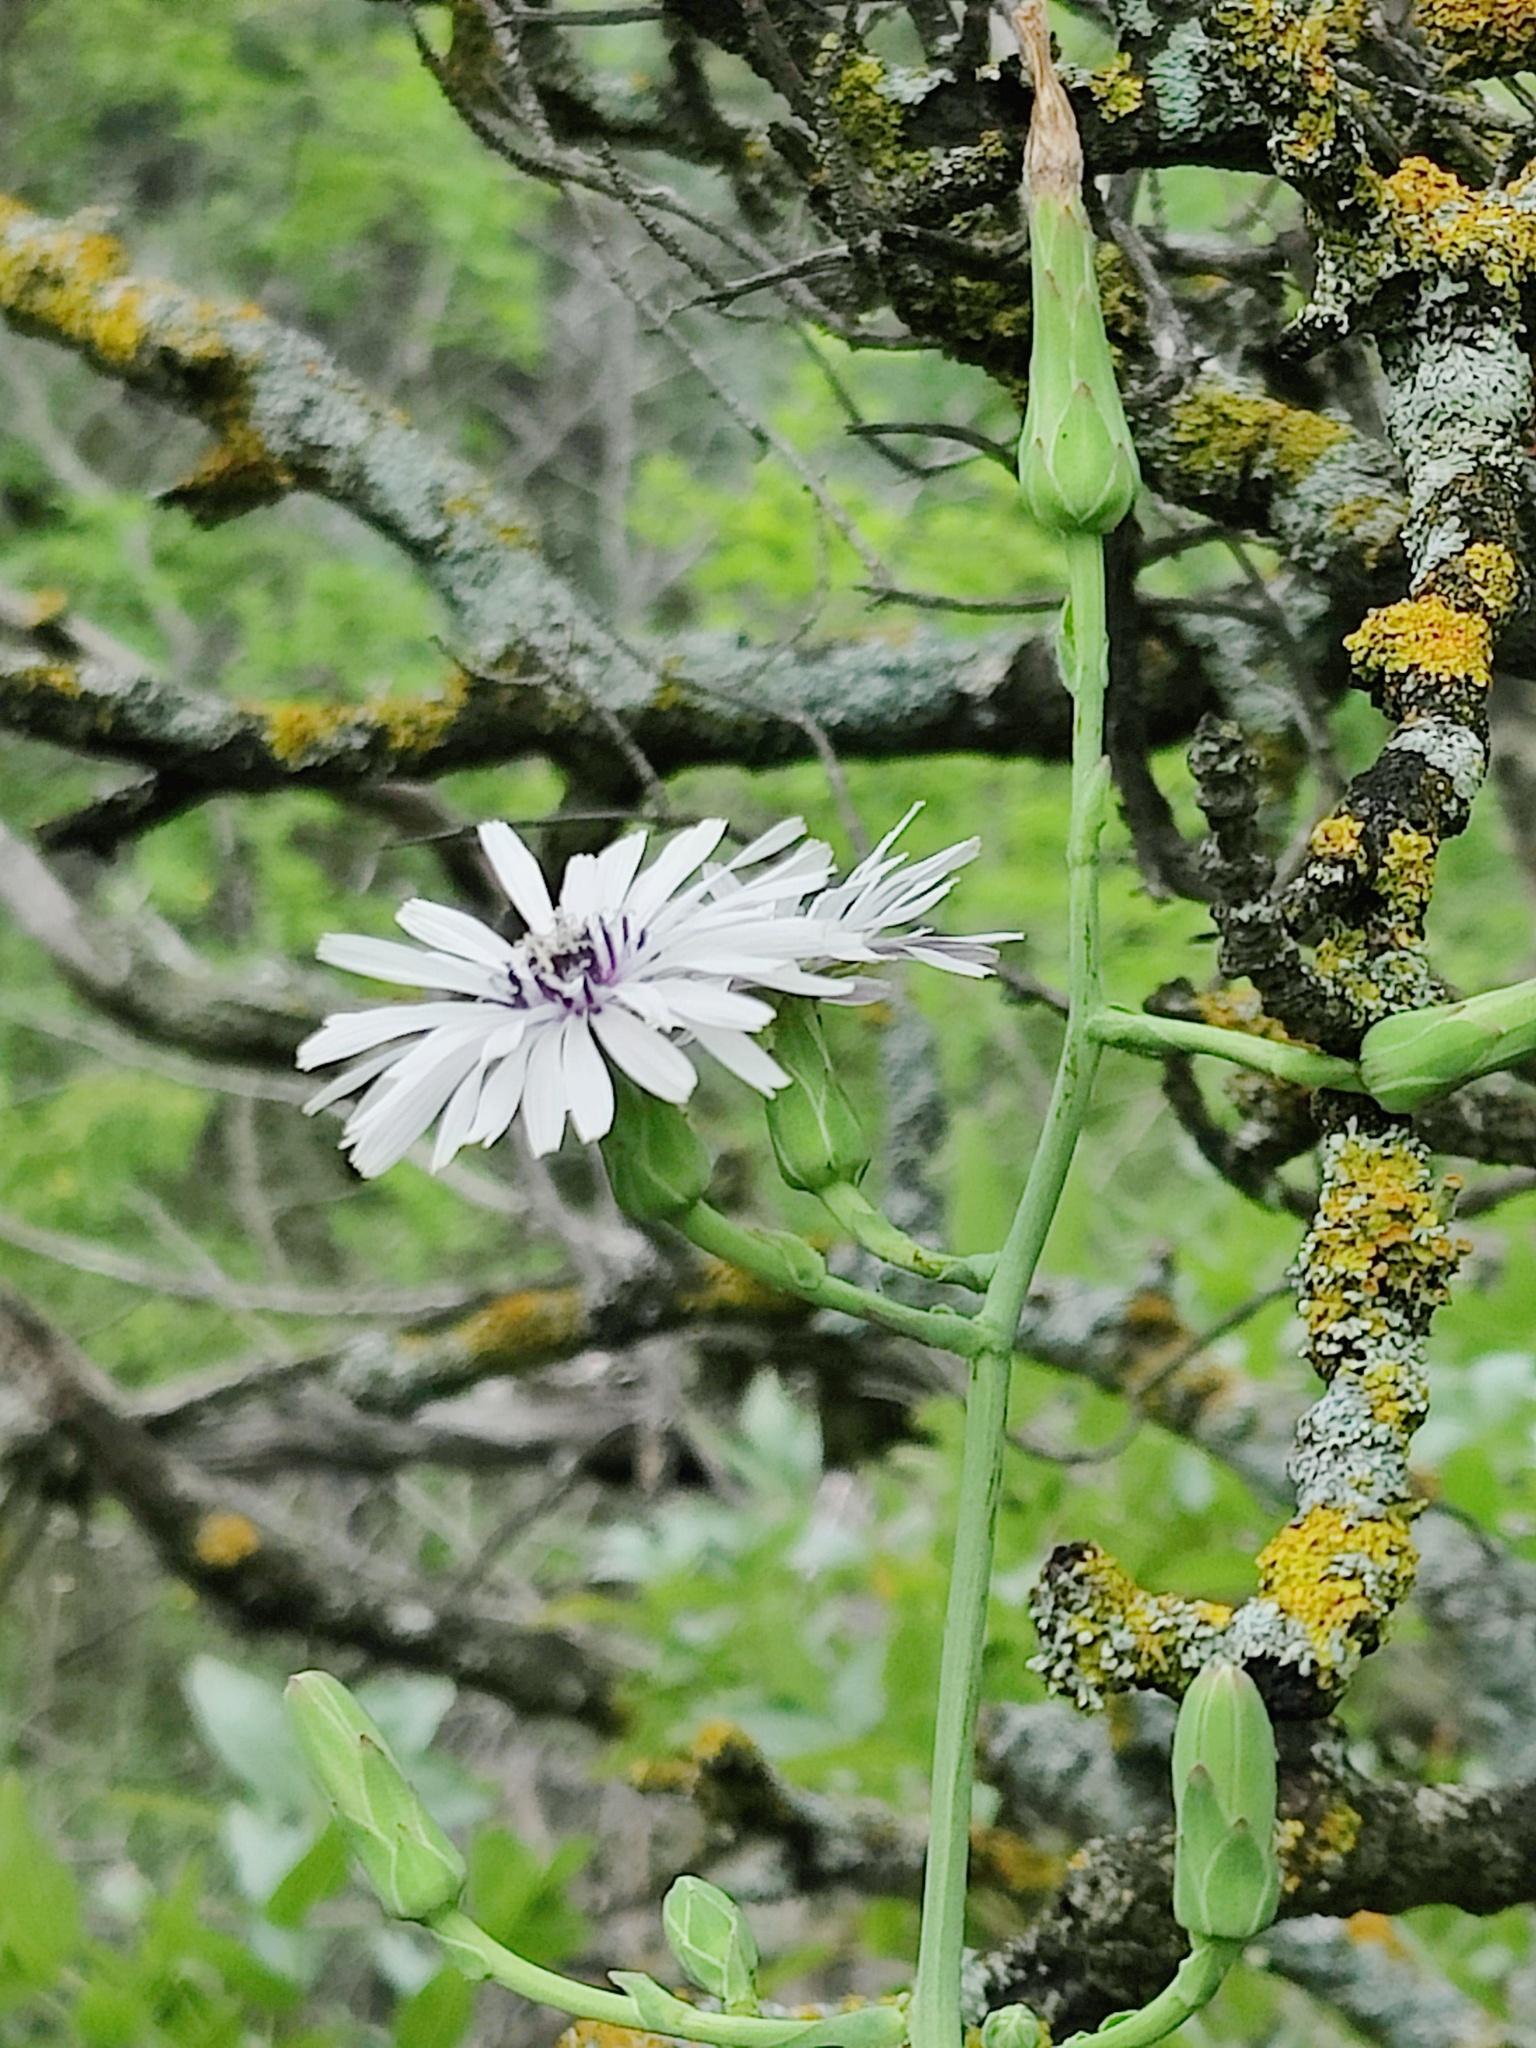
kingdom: Plantae
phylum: Tracheophyta
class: Magnoliopsida
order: Asterales
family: Asteraceae
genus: Lactuca
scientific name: Lactuca tuberosa
